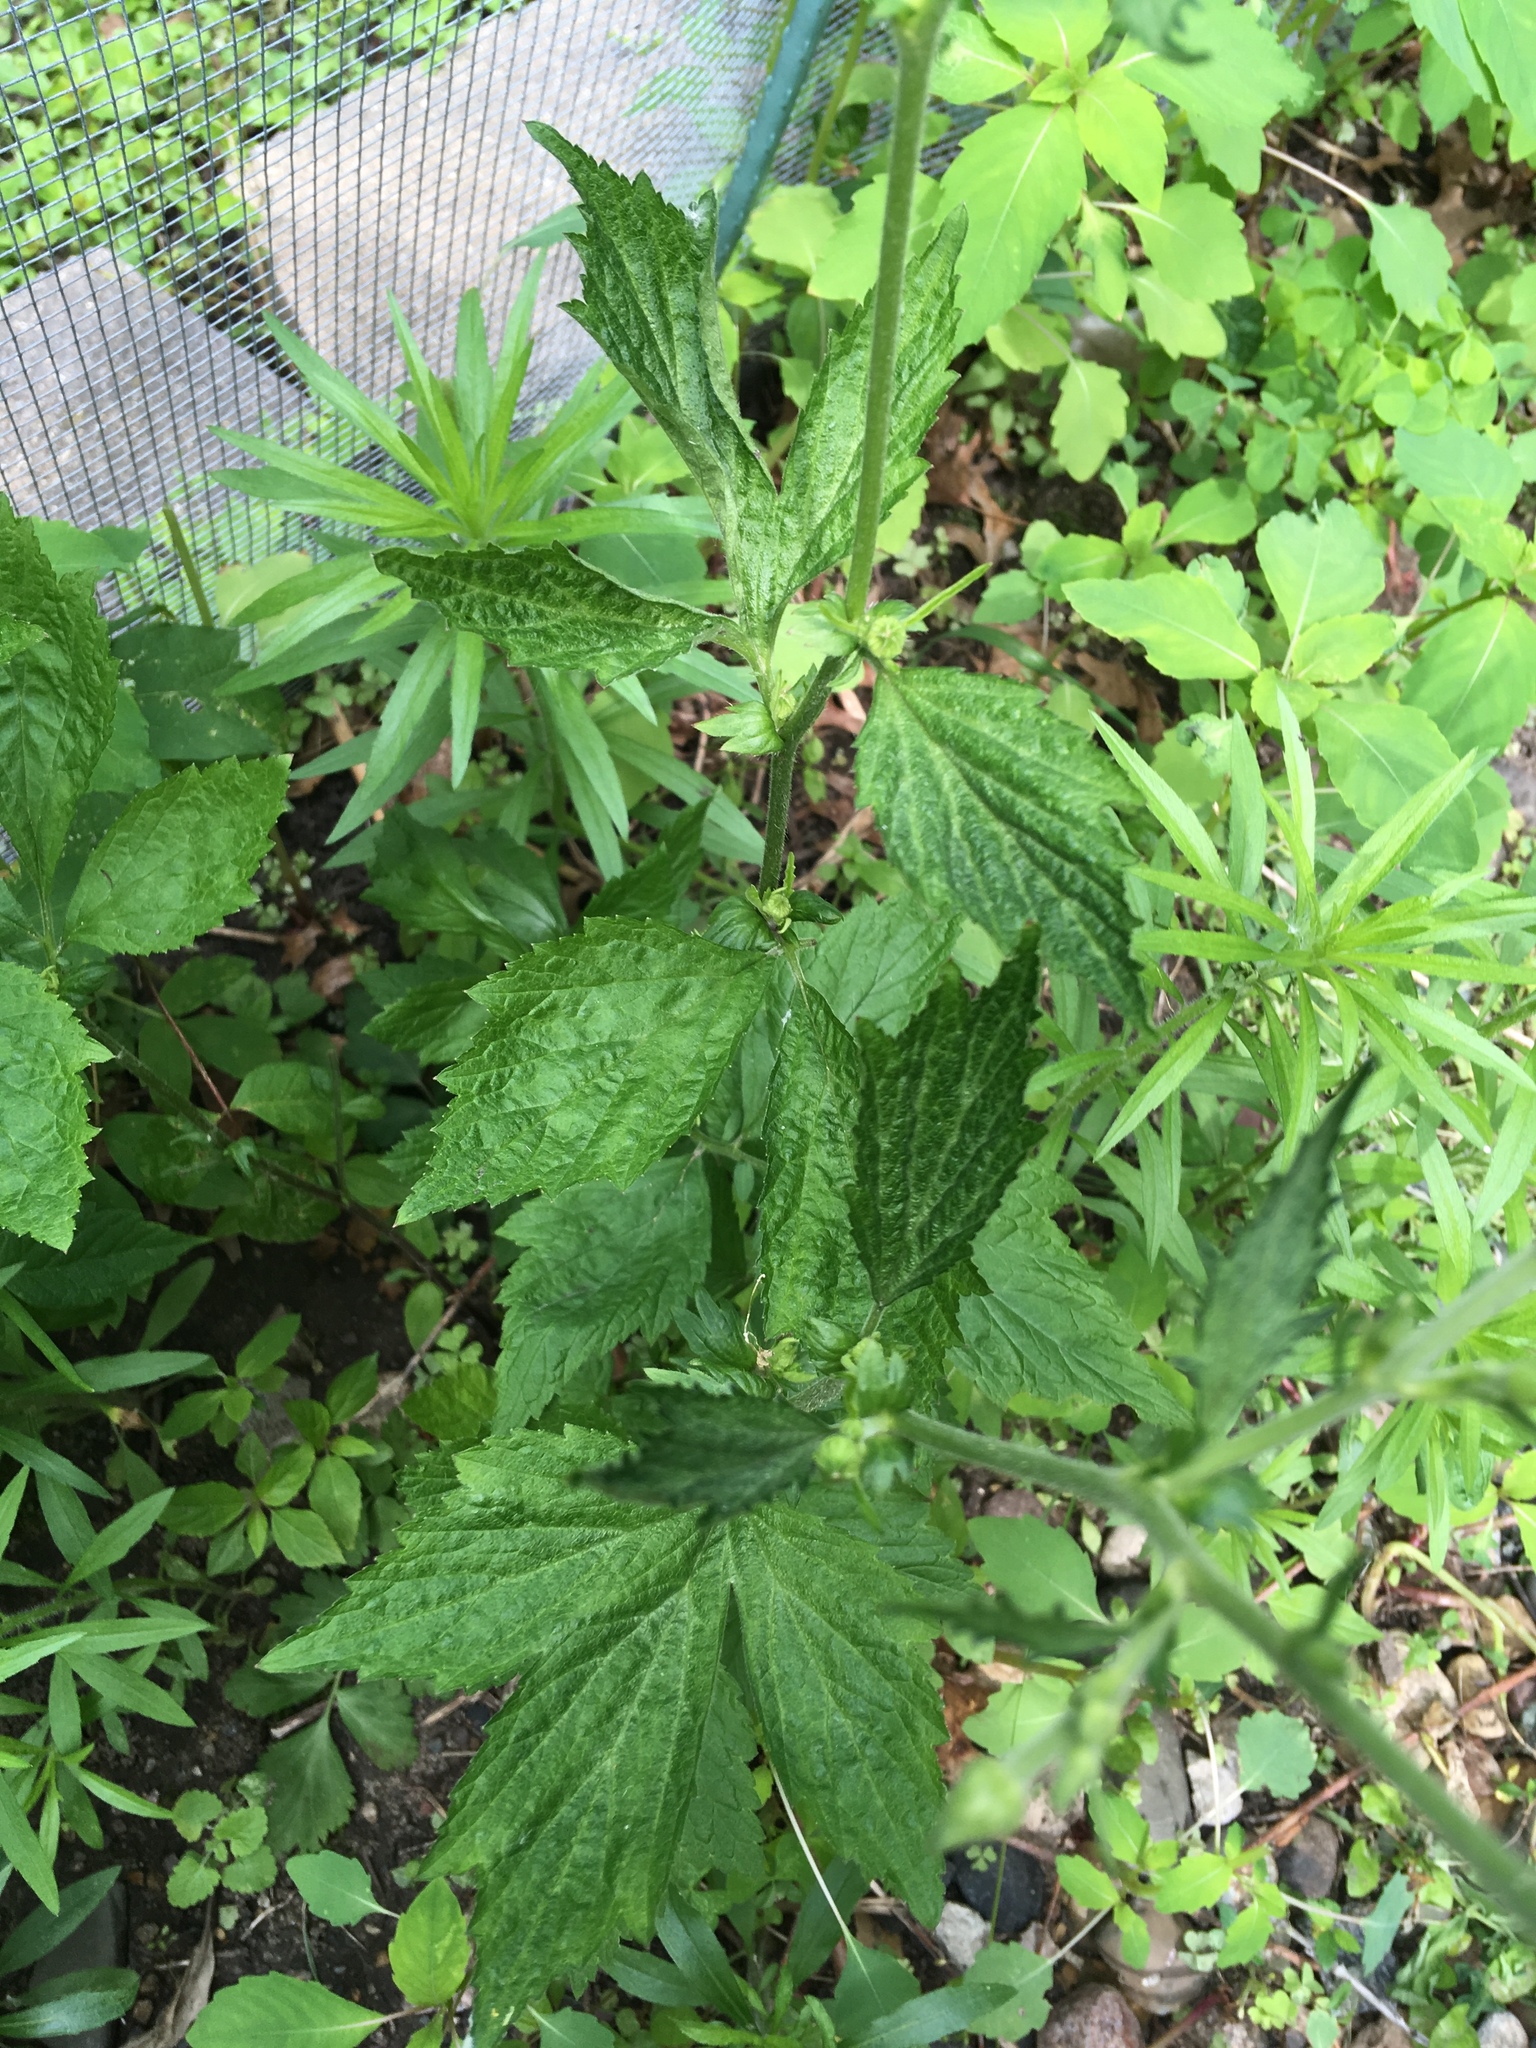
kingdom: Plantae
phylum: Tracheophyta
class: Magnoliopsida
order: Rosales
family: Rosaceae
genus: Geum
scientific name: Geum canadense
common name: White avens
